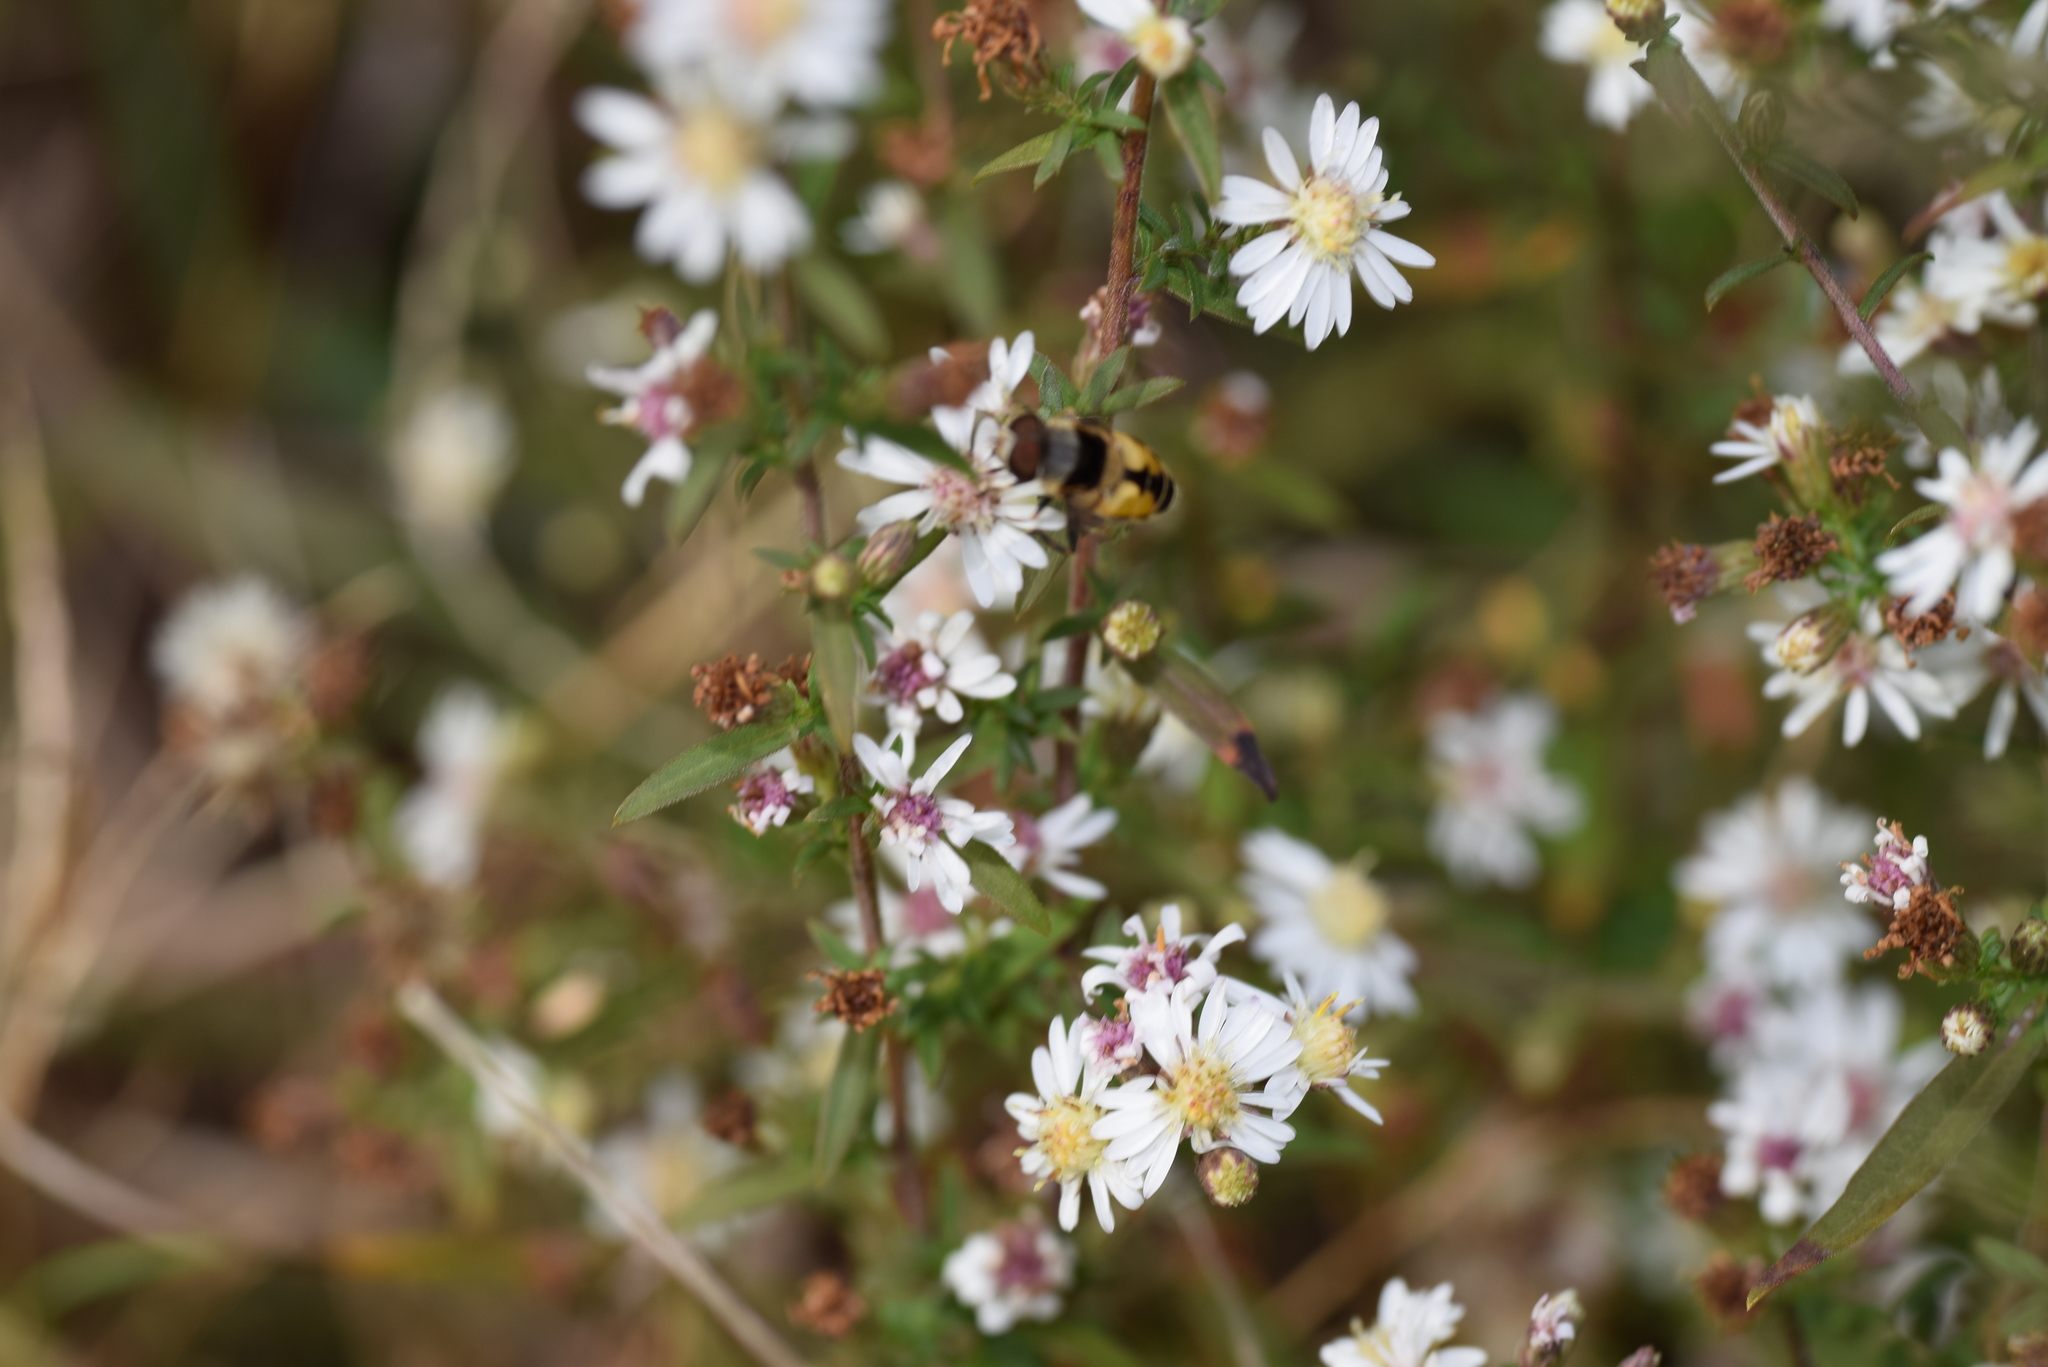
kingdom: Animalia
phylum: Arthropoda
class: Insecta
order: Diptera
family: Syrphidae
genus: Palpada
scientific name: Palpada pusilla
